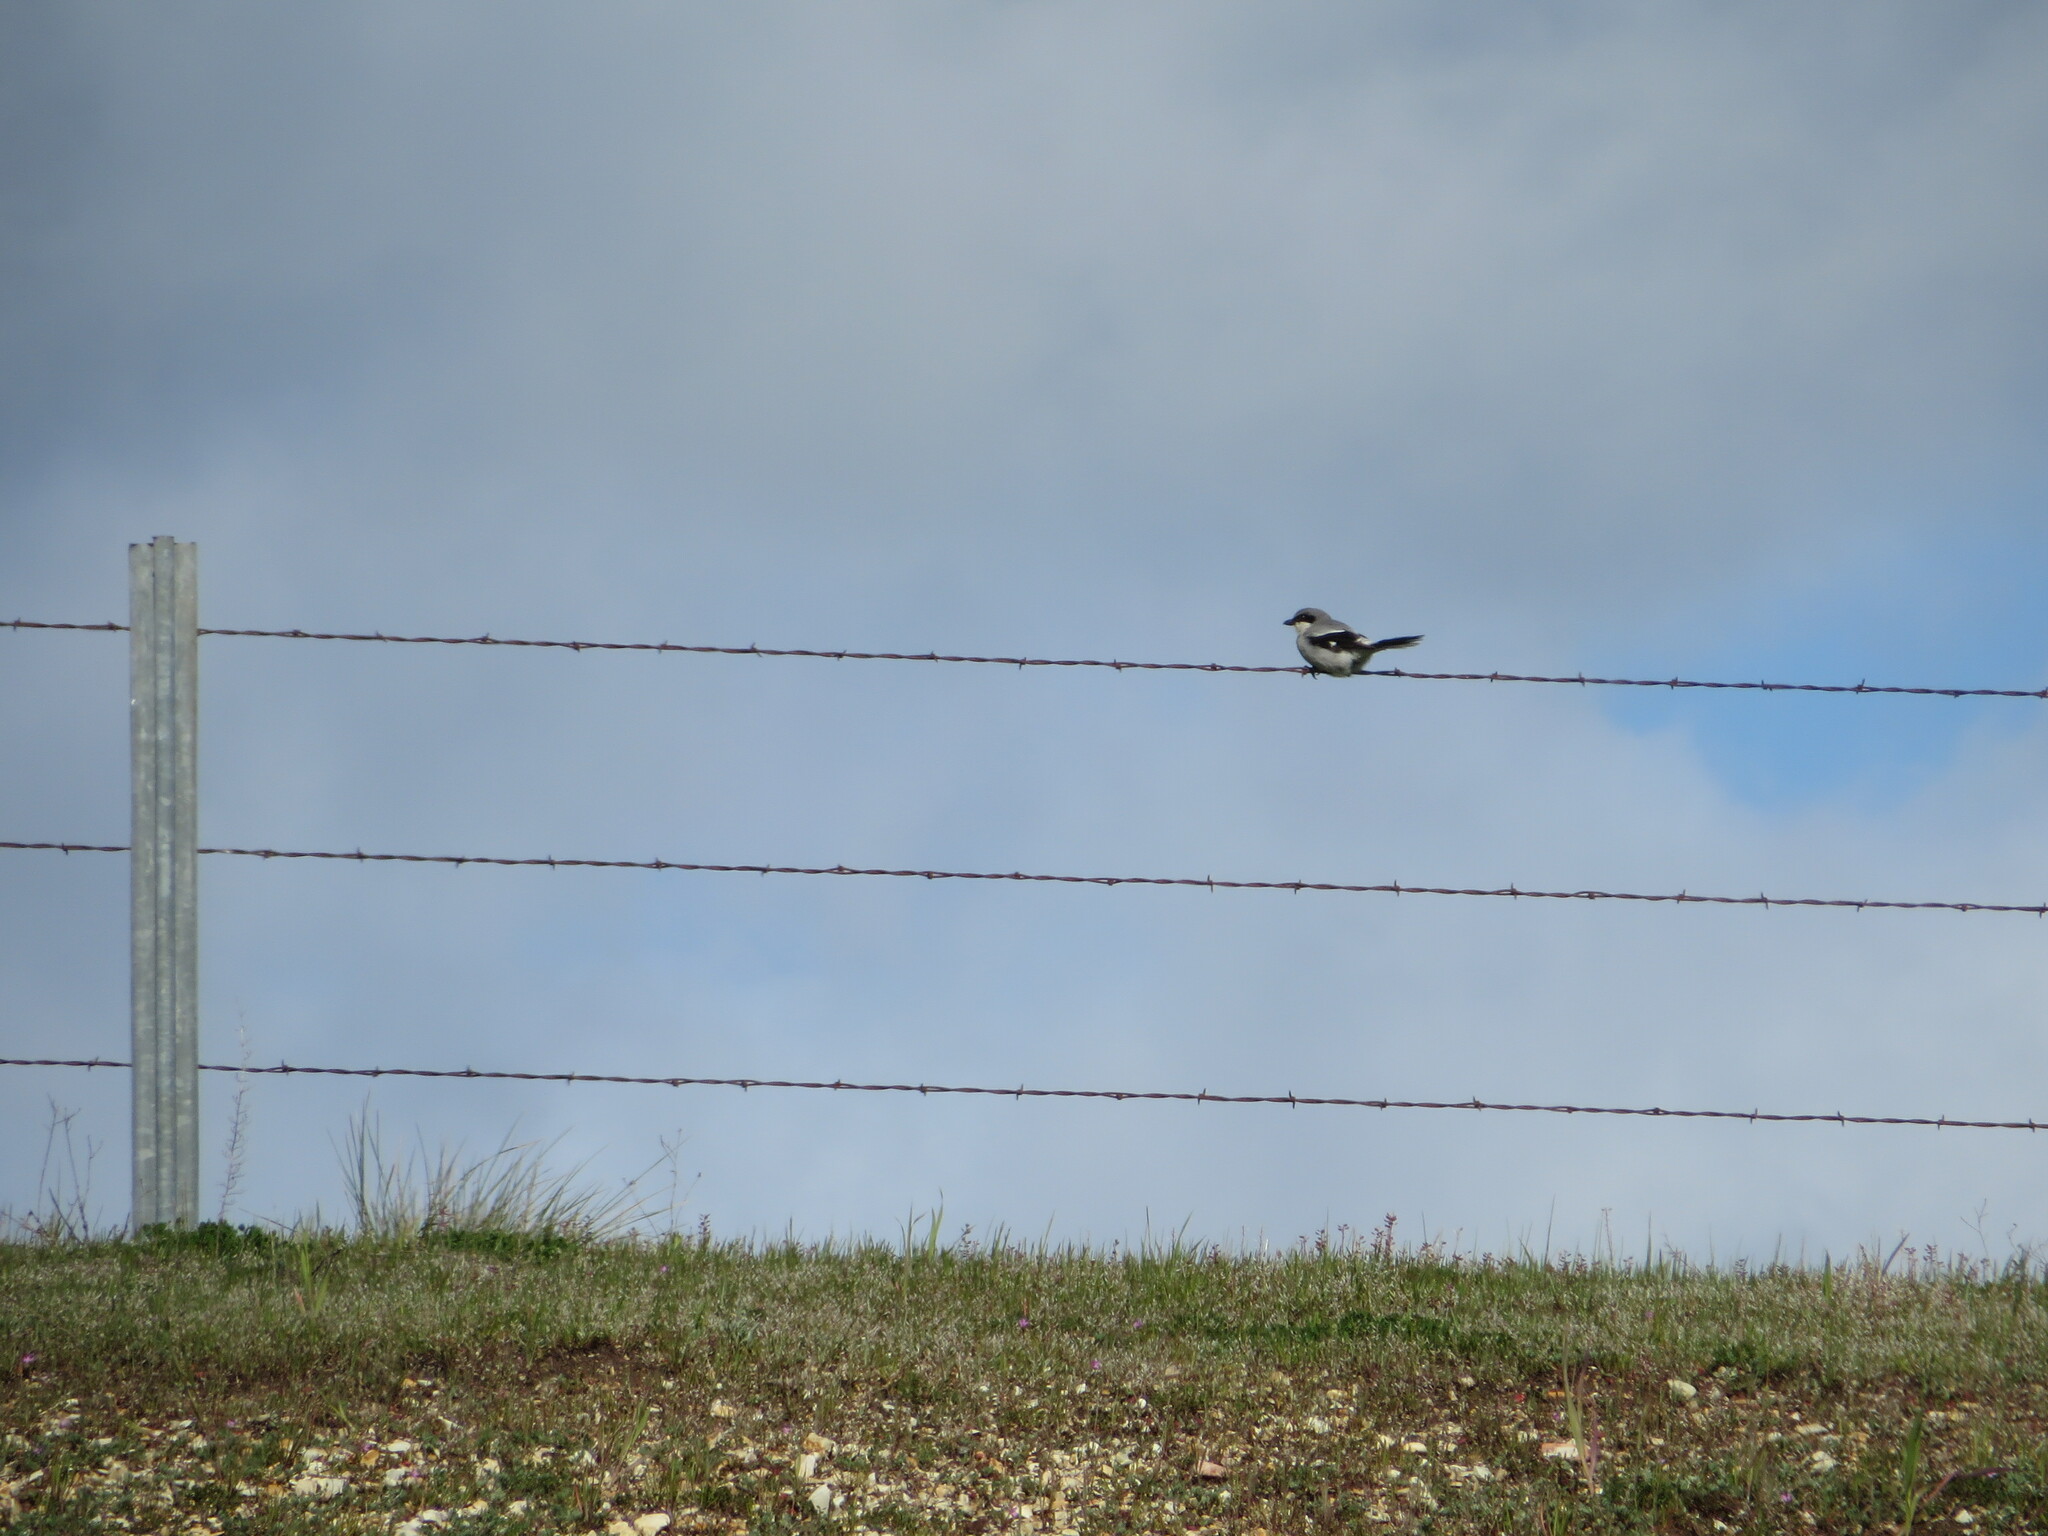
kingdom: Animalia
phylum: Chordata
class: Aves
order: Passeriformes
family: Laniidae
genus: Lanius
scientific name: Lanius ludovicianus
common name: Loggerhead shrike
